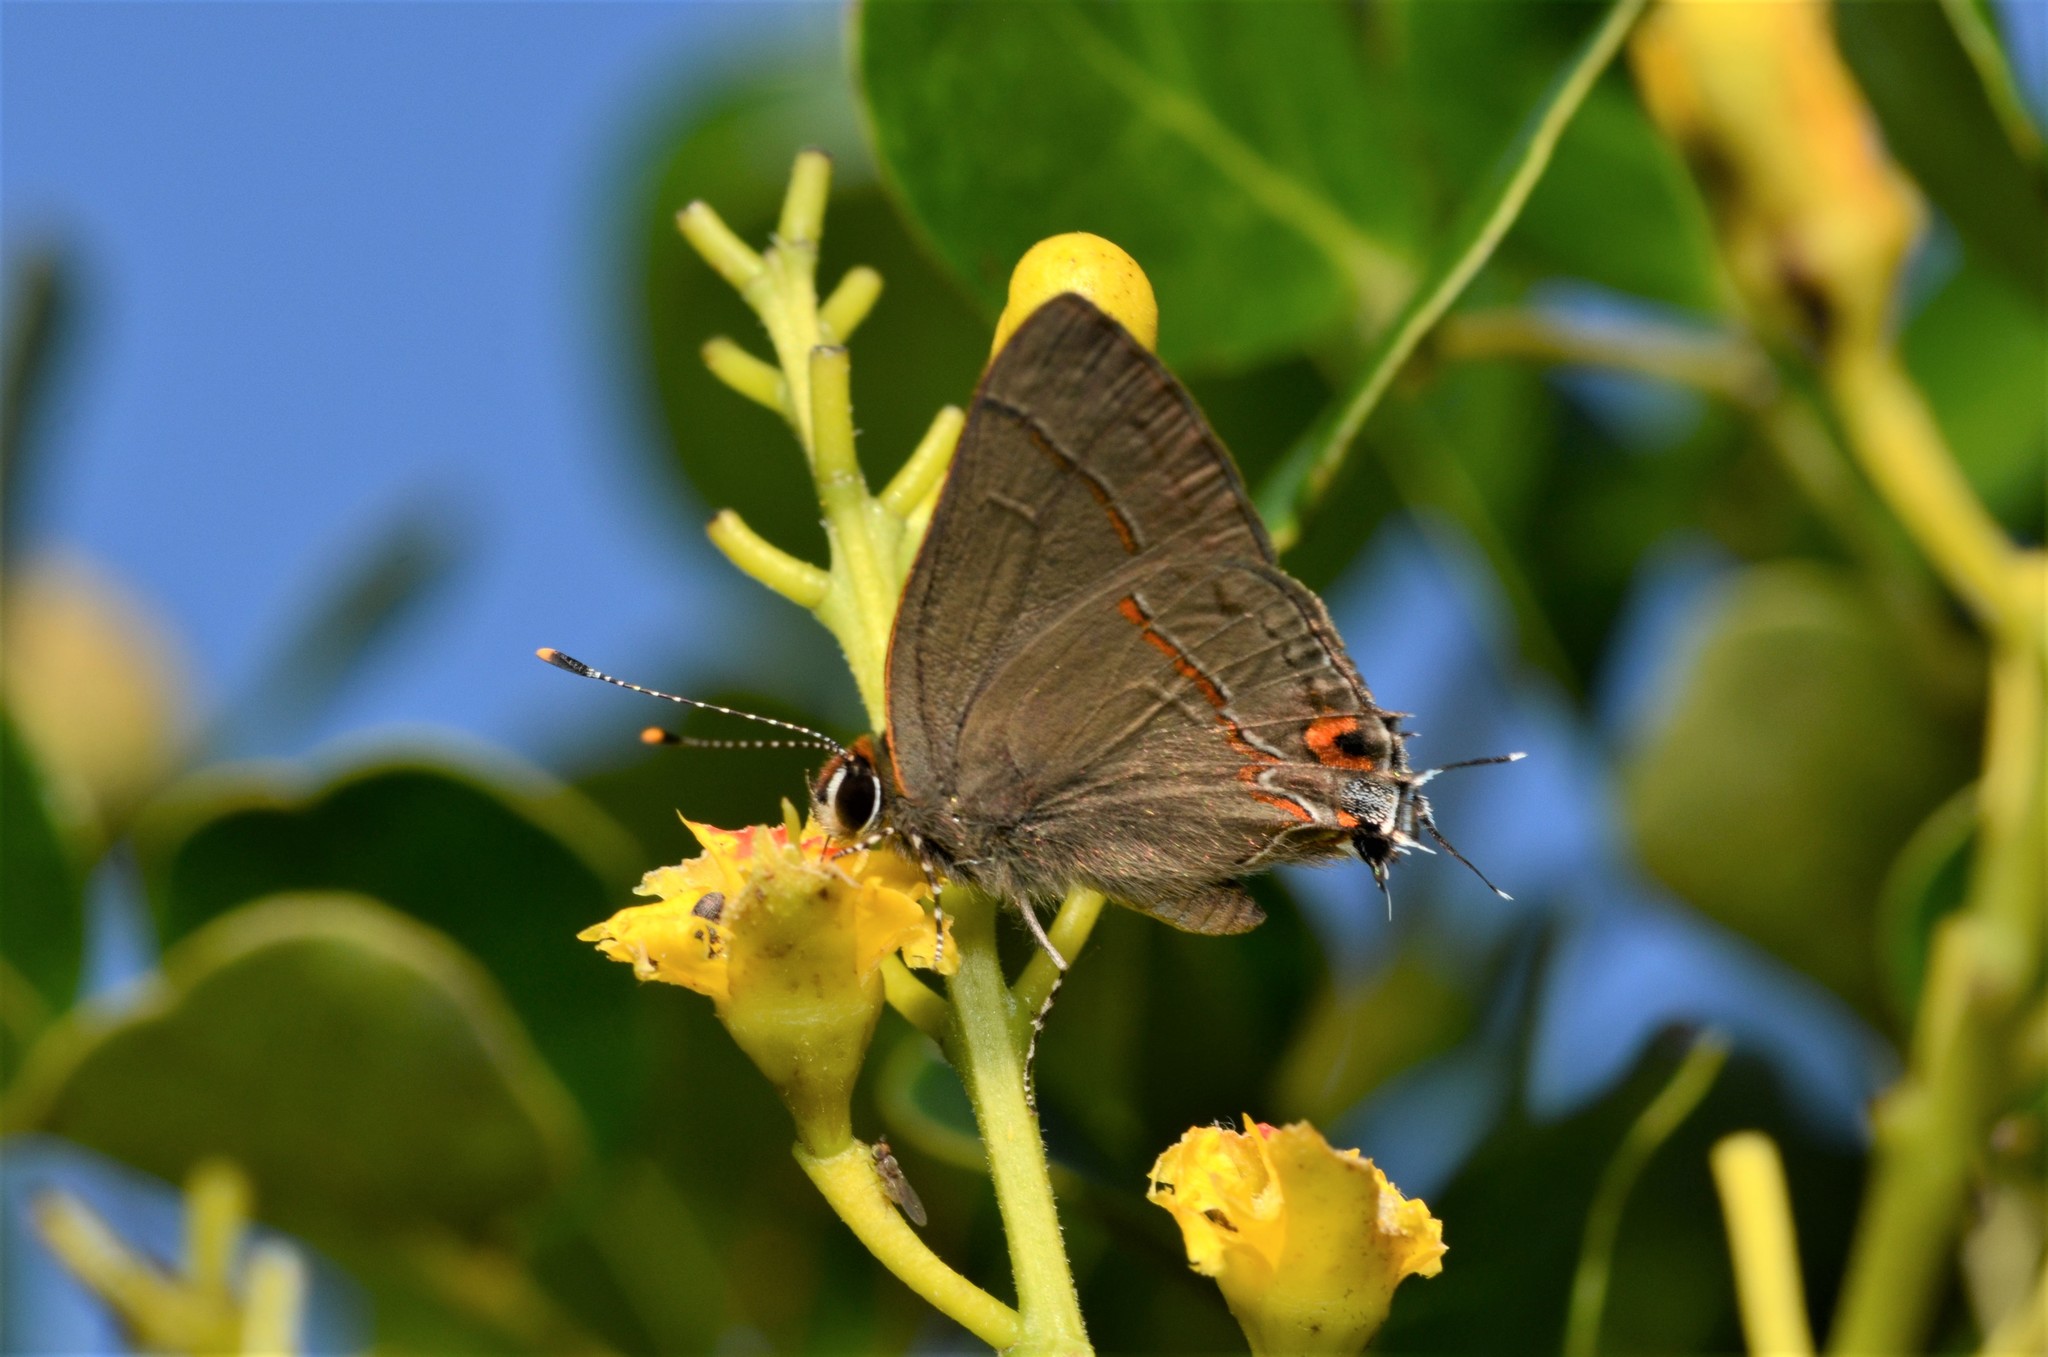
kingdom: Animalia
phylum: Arthropoda
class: Insecta
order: Lepidoptera
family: Lycaenidae
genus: Thecla
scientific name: Thecla joya
